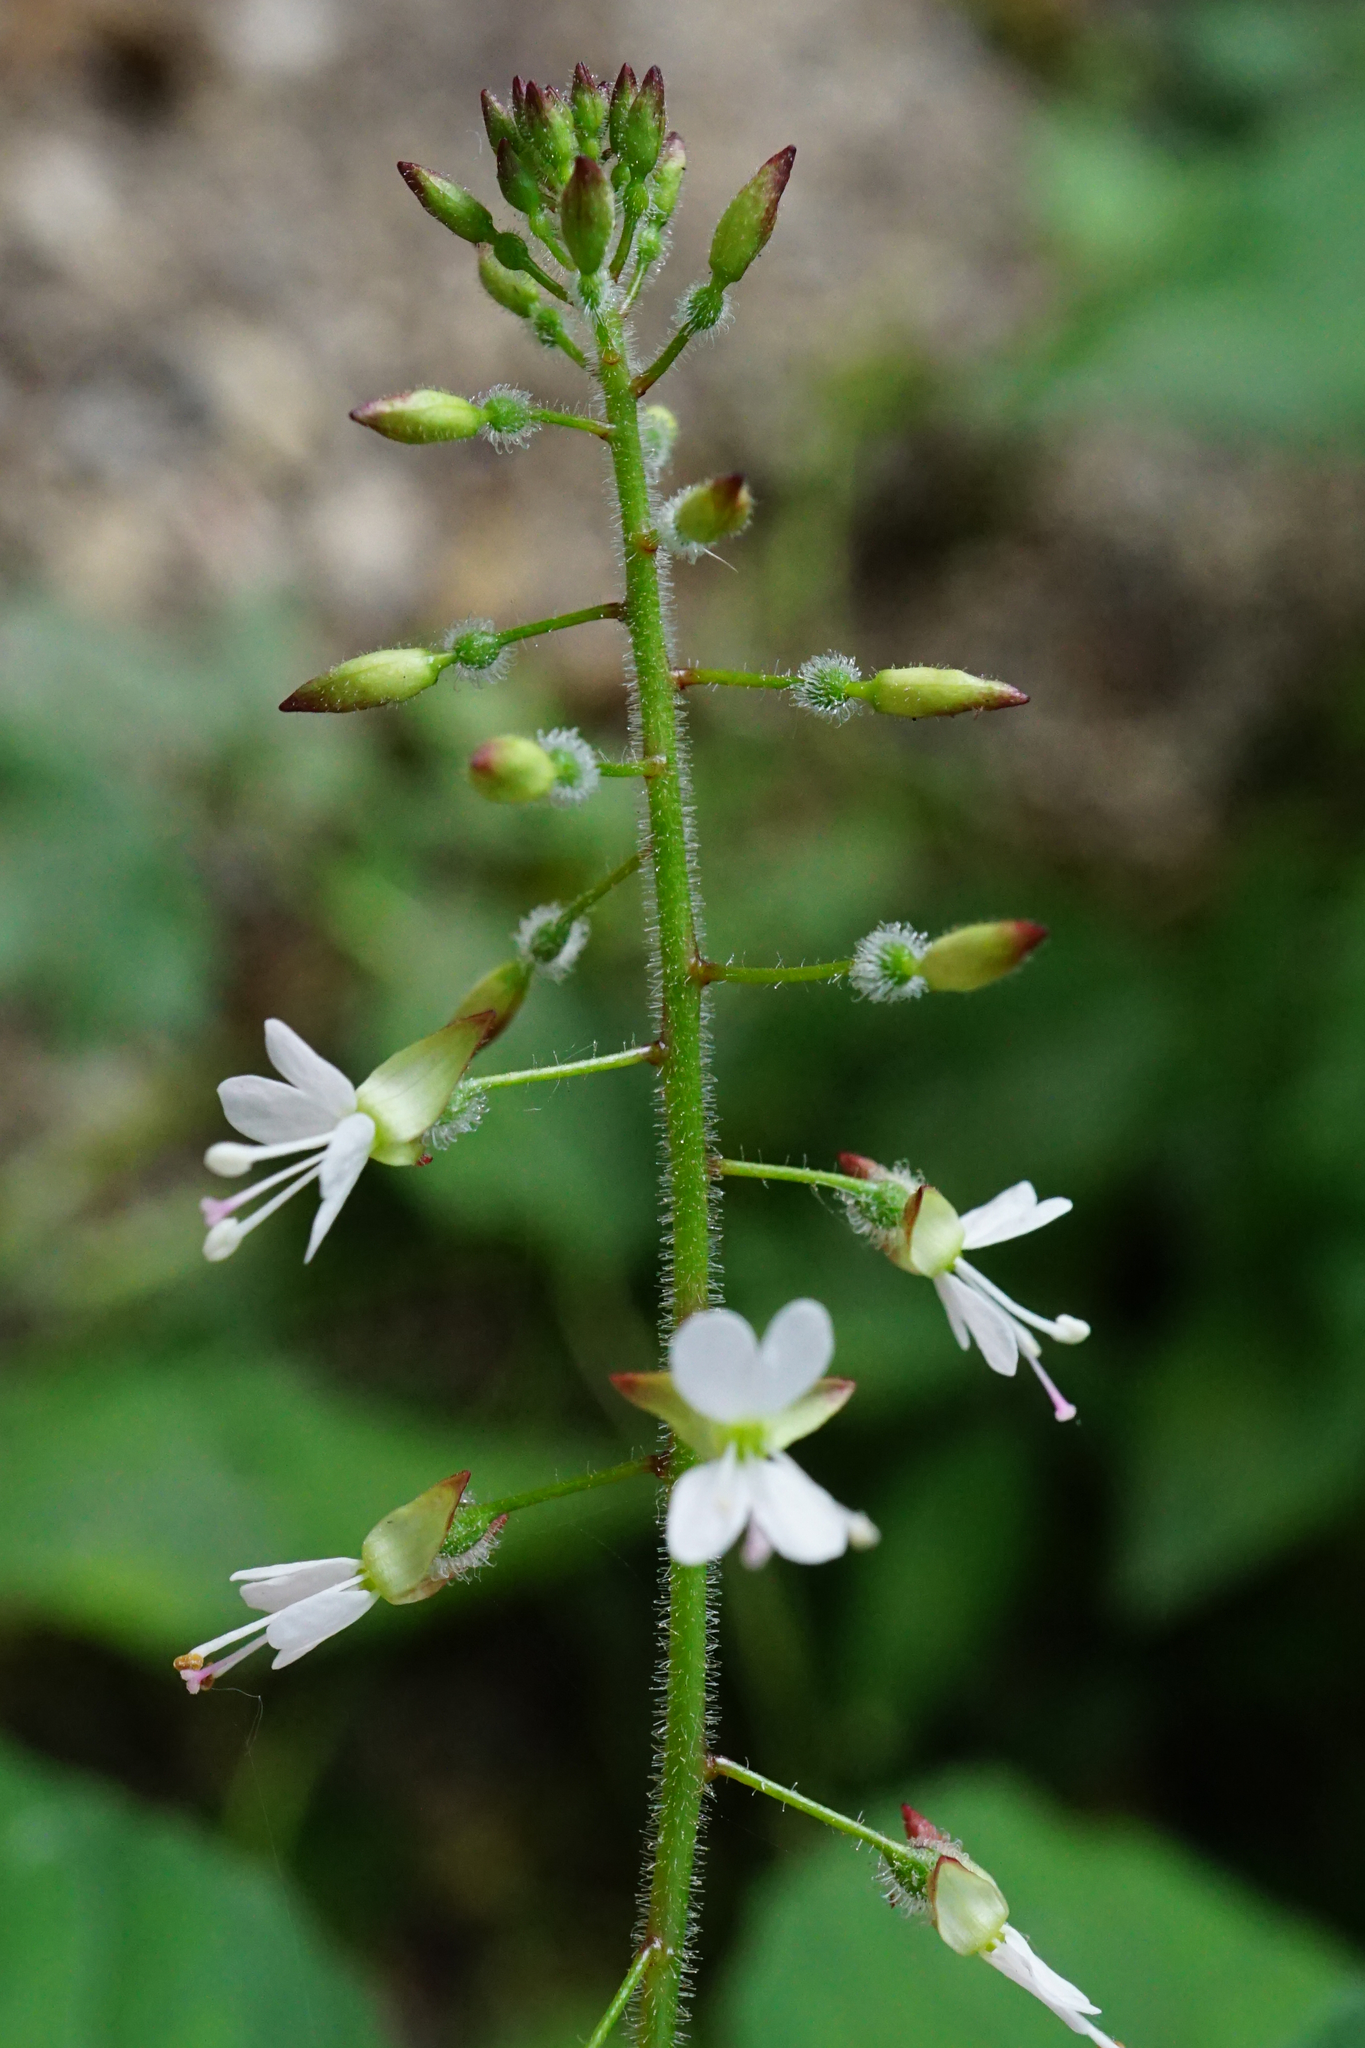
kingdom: Plantae
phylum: Tracheophyta
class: Magnoliopsida
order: Myrtales
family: Onagraceae
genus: Circaea
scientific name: Circaea lutetiana
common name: Enchanter's-nightshade
